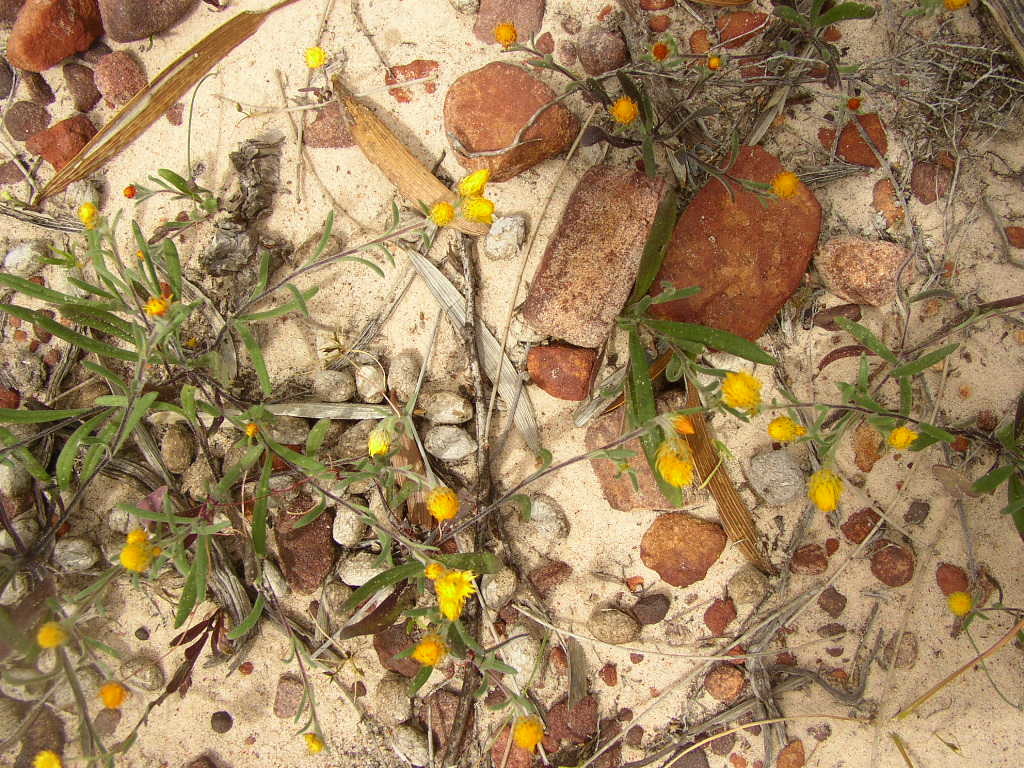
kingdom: Plantae
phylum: Tracheophyta
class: Magnoliopsida
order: Asterales
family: Asteraceae
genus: Waitzia
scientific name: Waitzia acuminata
